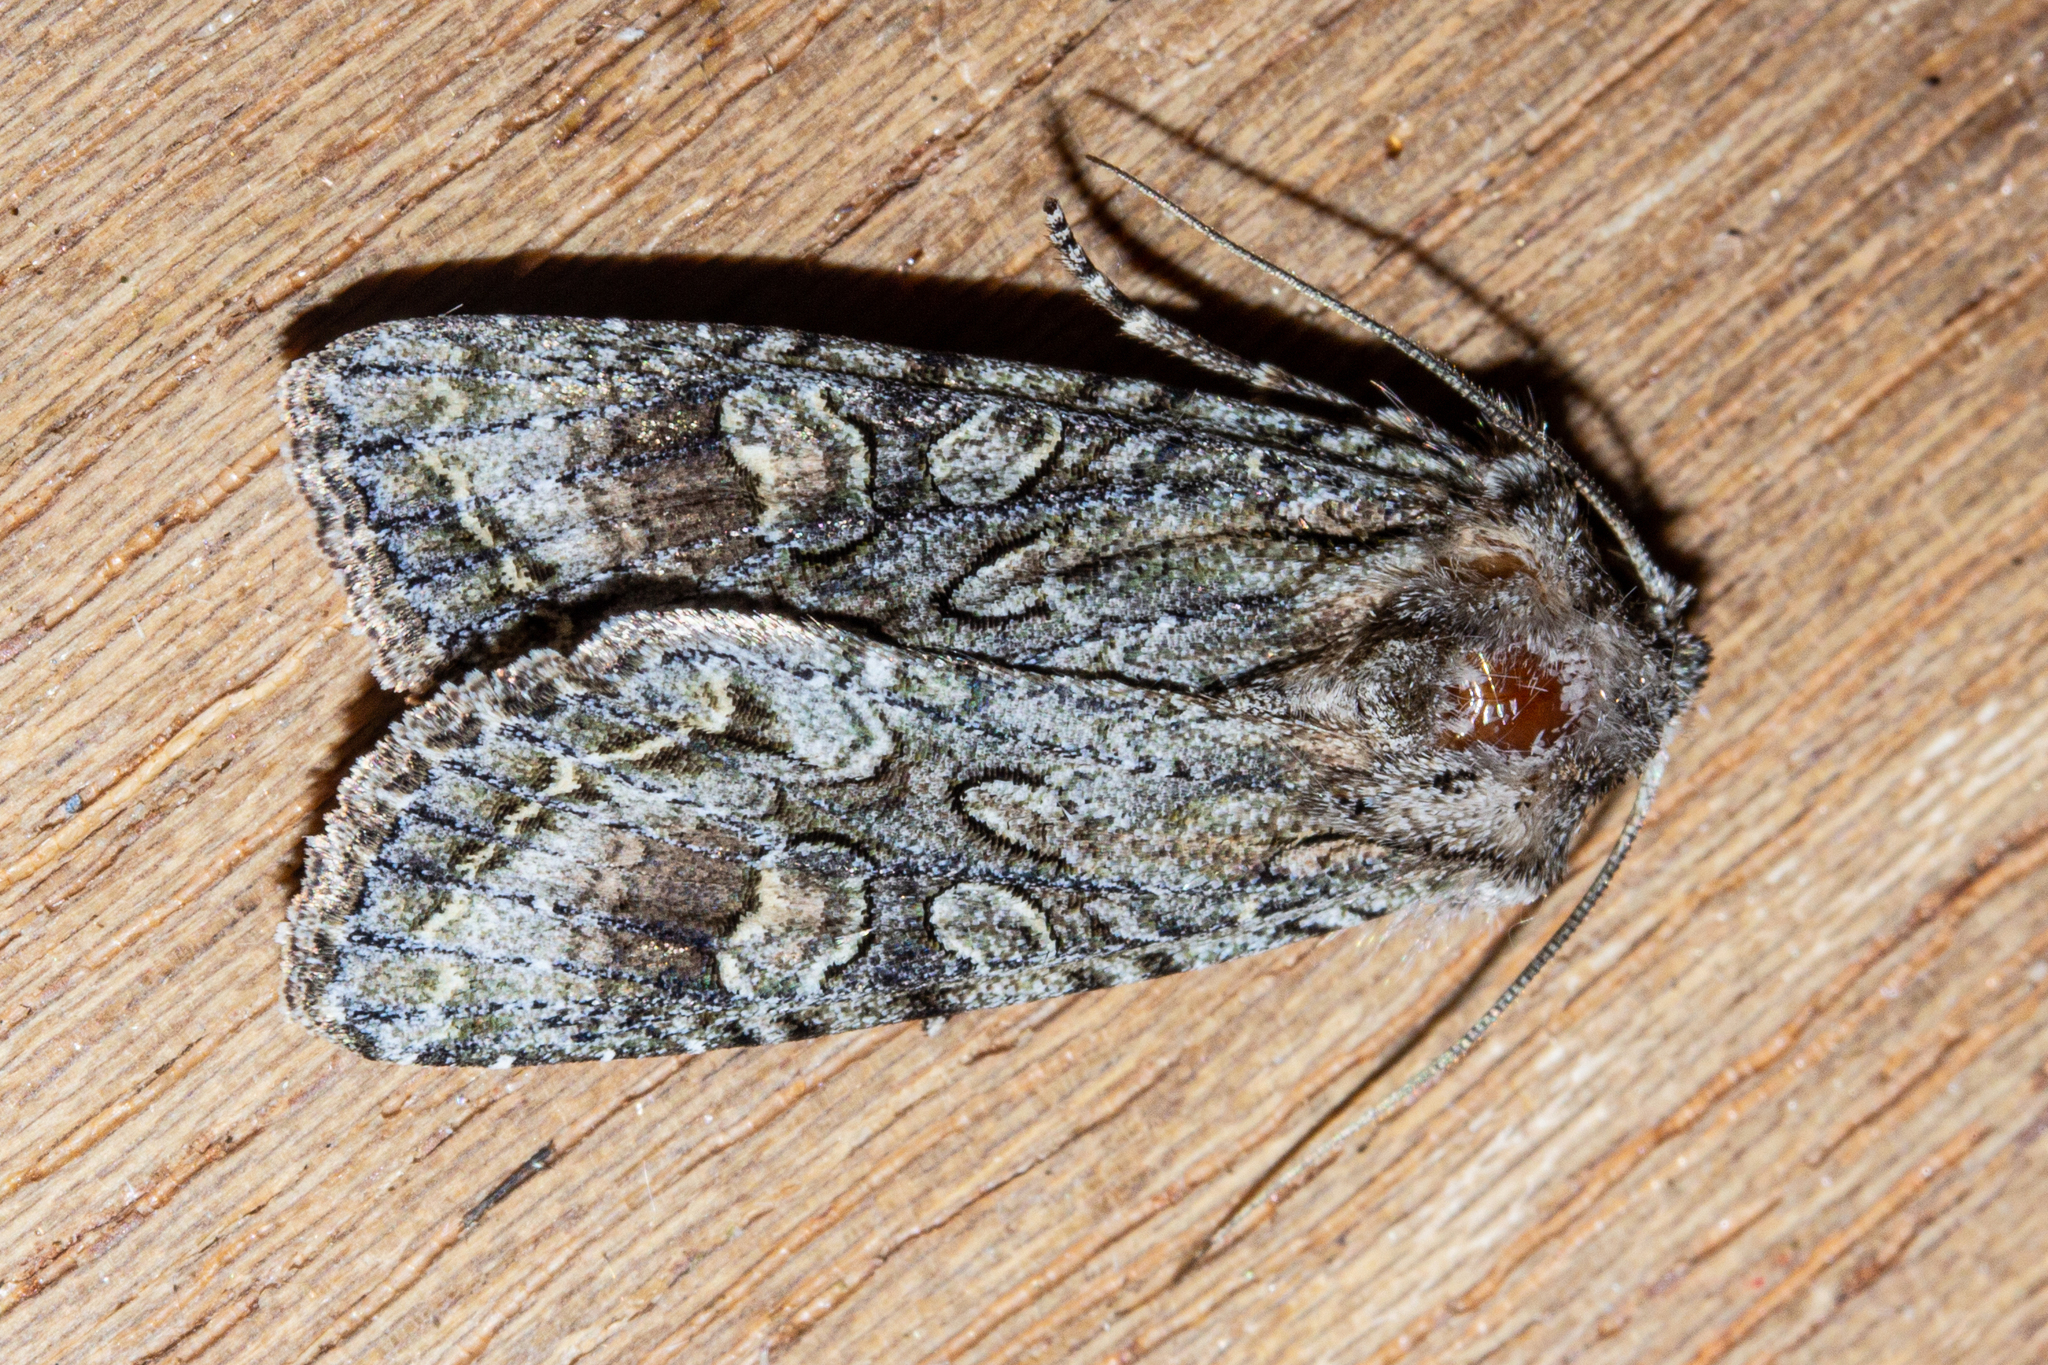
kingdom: Animalia
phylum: Arthropoda
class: Insecta
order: Lepidoptera
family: Noctuidae
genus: Ichneutica
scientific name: Ichneutica mutans
